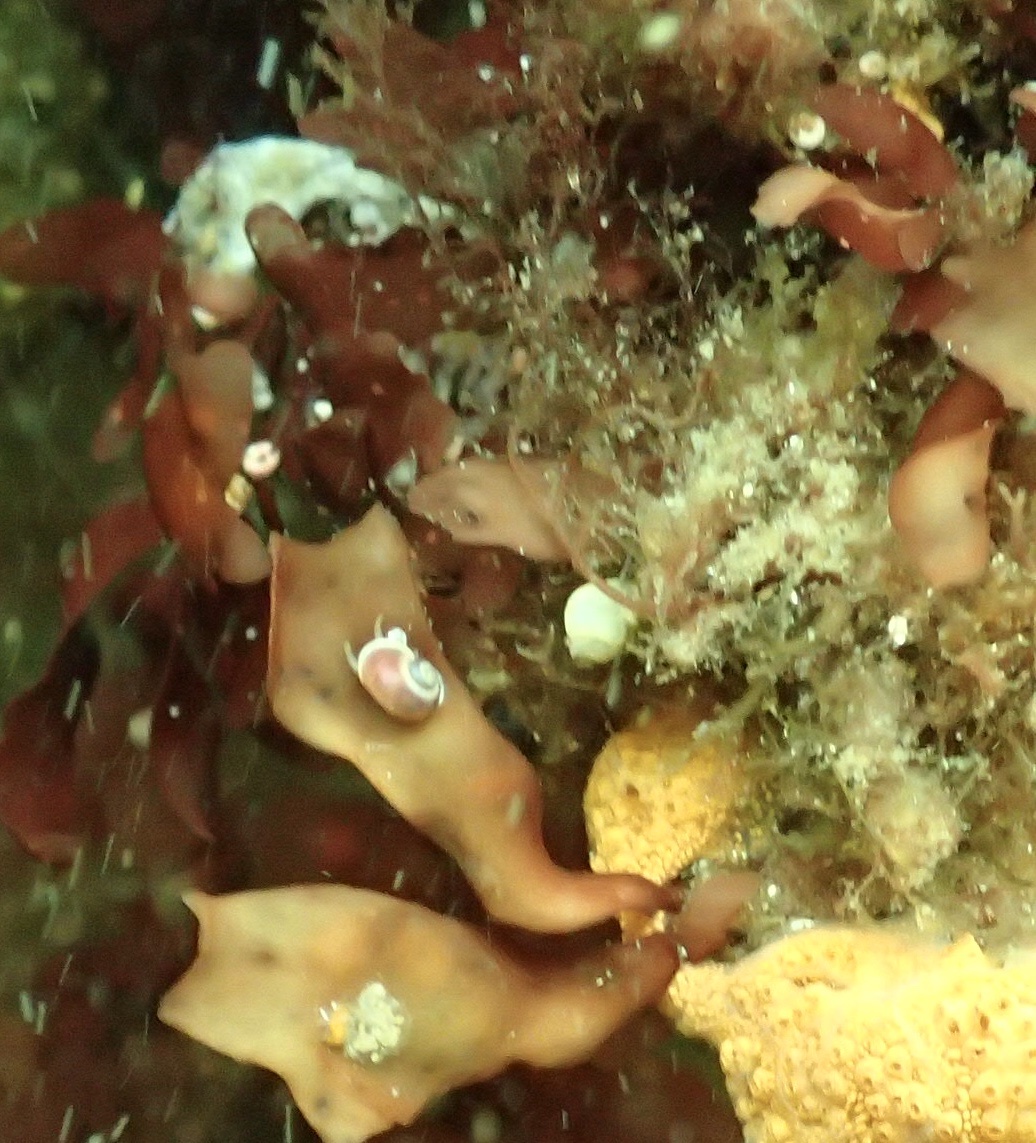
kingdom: Animalia
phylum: Mollusca
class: Gastropoda
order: Trochida
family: Margaritidae
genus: Margarites
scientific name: Margarites helicinus
